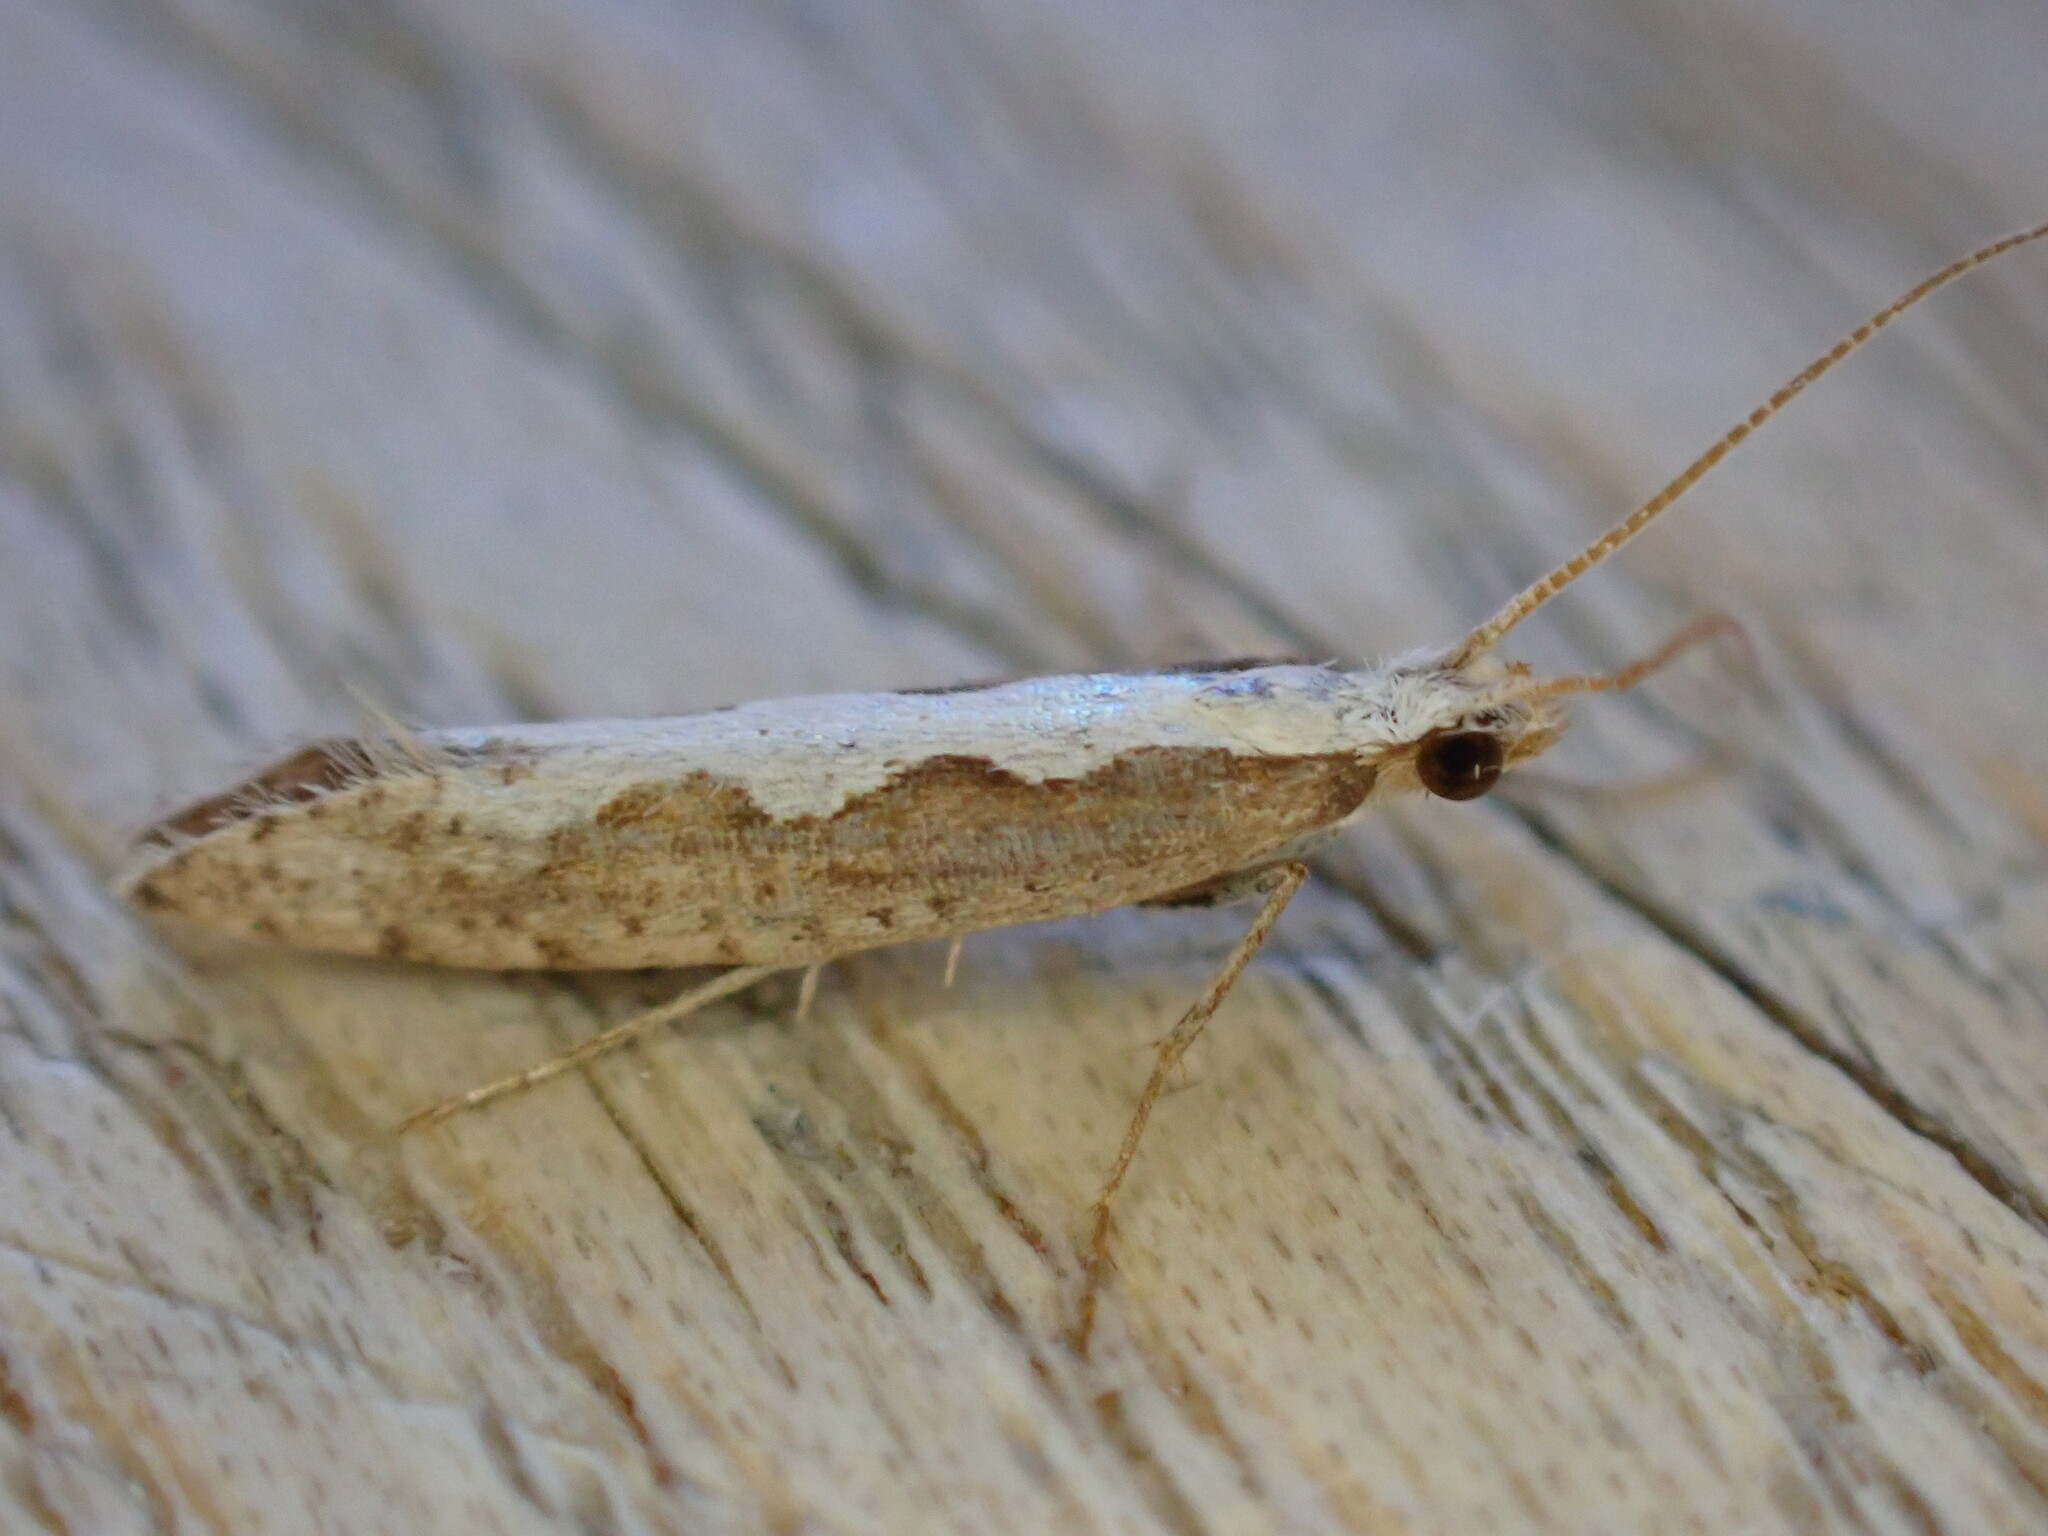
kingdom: Animalia
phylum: Arthropoda
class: Insecta
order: Lepidoptera
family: Plutellidae
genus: Plutella
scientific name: Plutella xylostella
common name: Diamond-back moth
